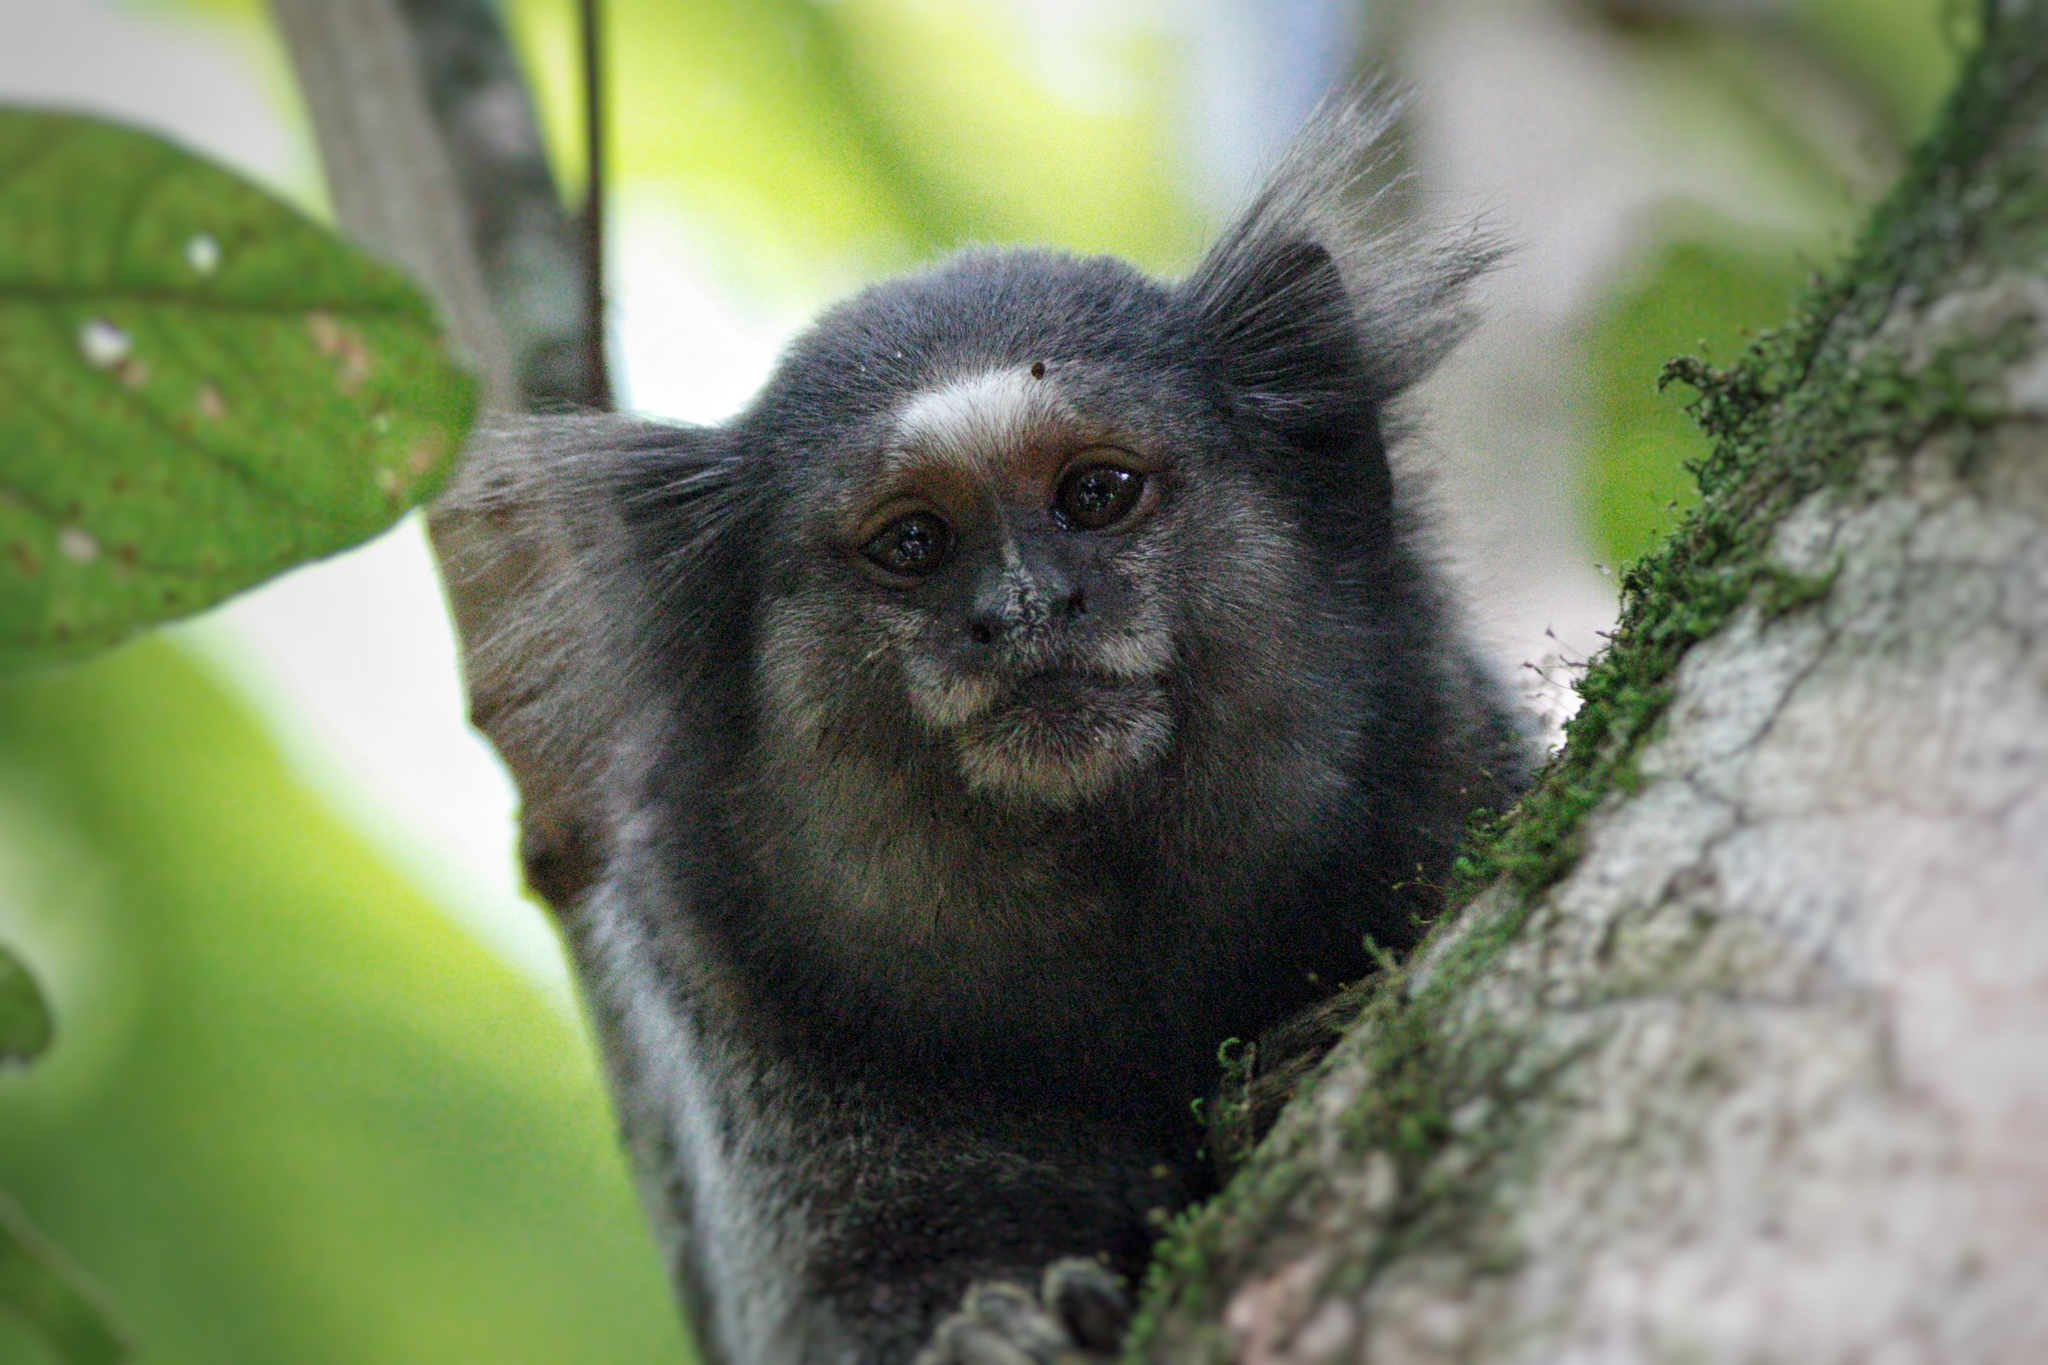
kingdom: Animalia
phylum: Chordata
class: Mammalia
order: Primates
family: Callitrichidae
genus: Callithrix
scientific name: Callithrix penicillata
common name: Black-tufted marmoset
